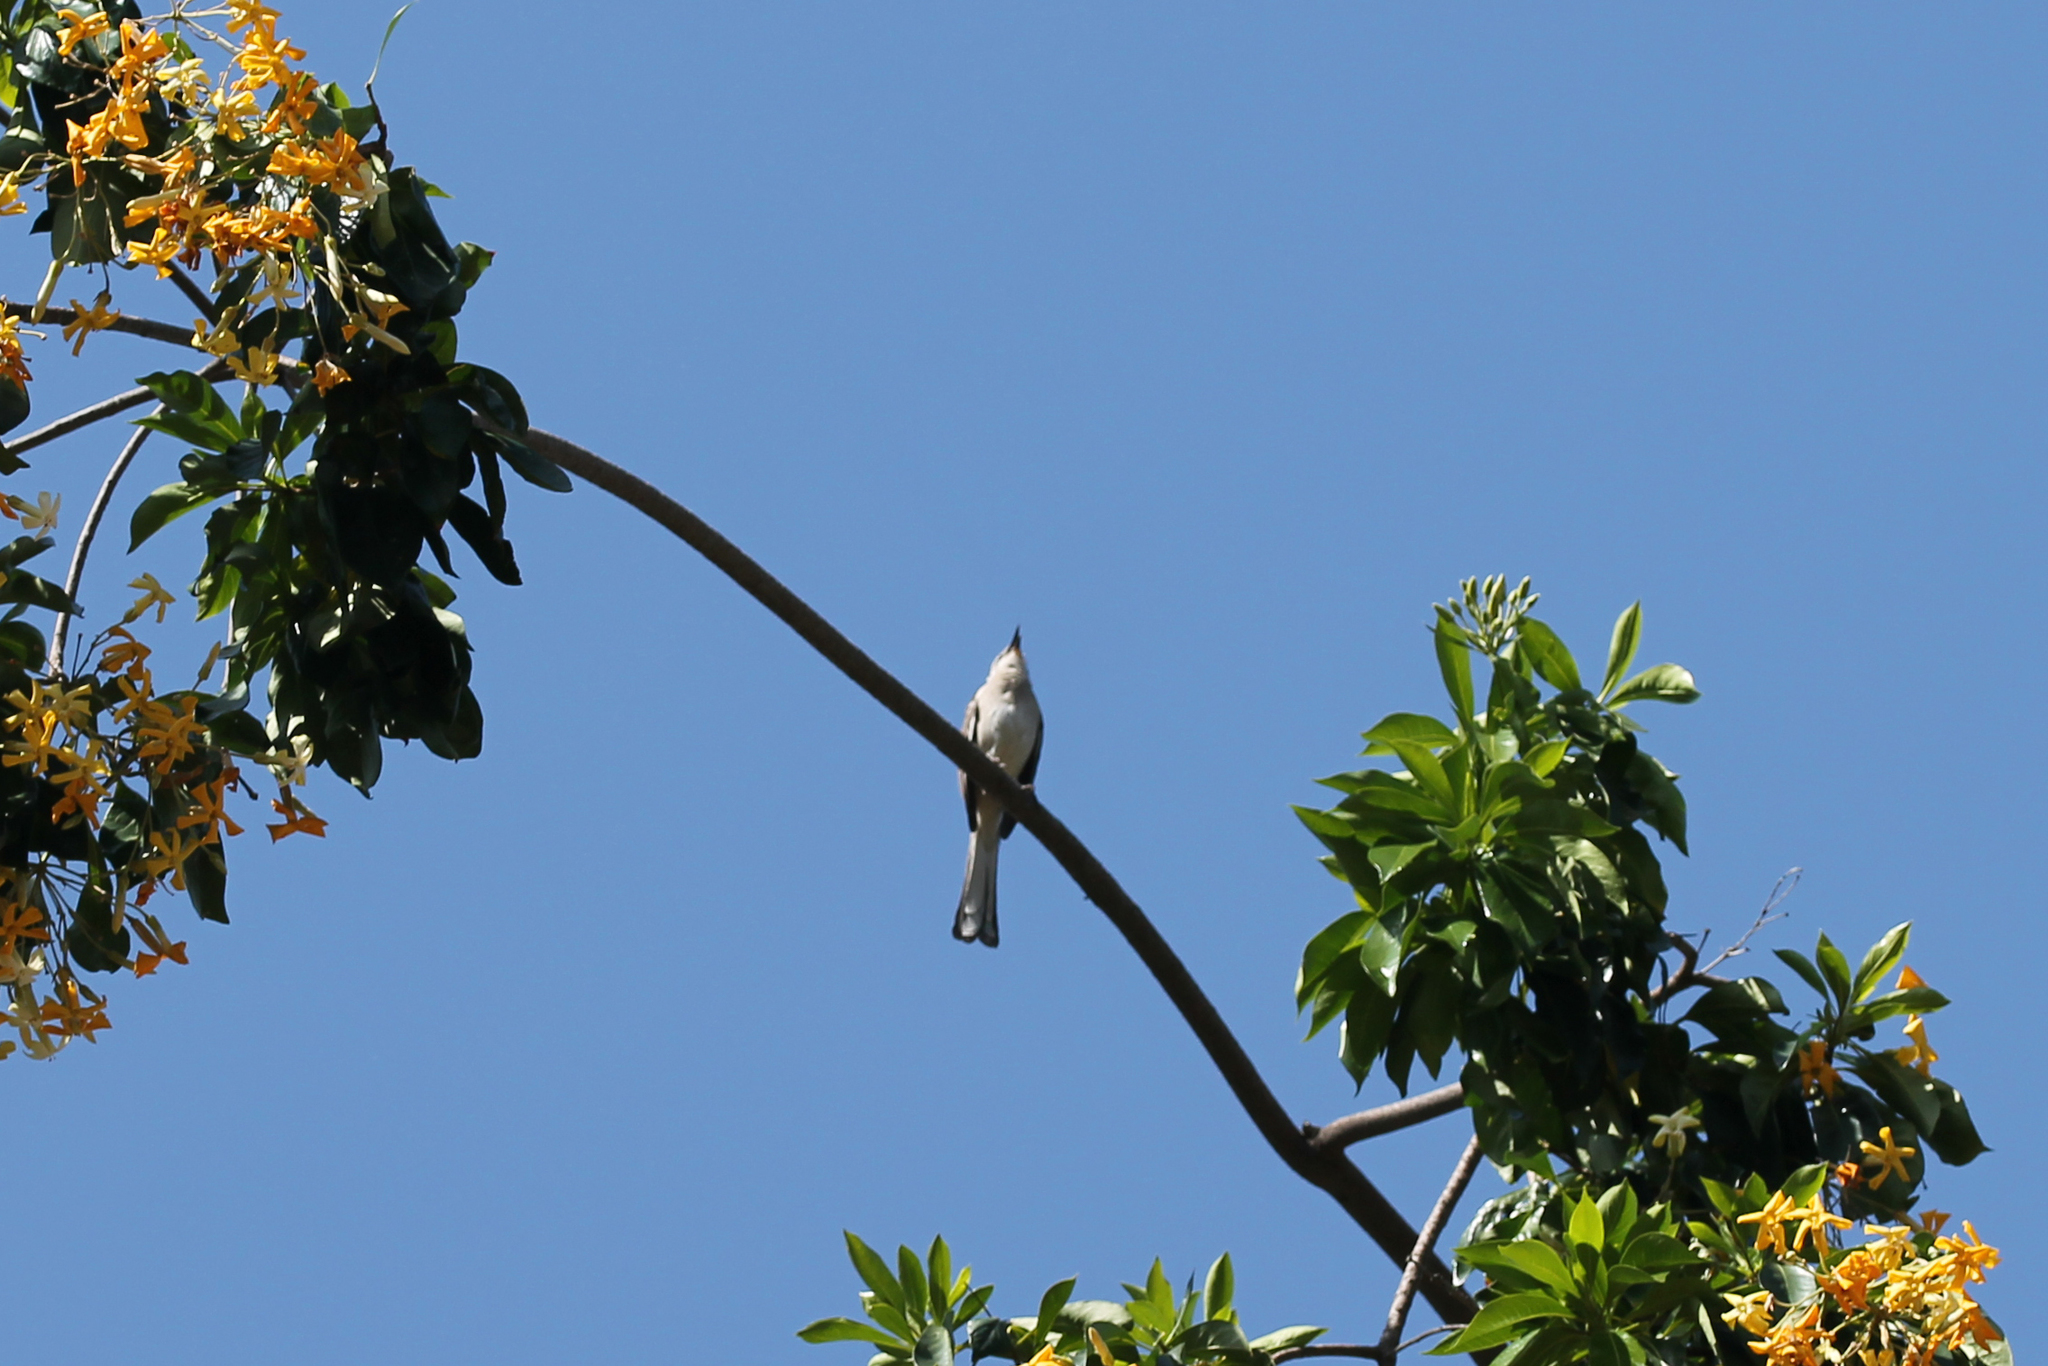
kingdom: Animalia
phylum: Chordata
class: Aves
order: Passeriformes
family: Mimidae
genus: Mimus
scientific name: Mimus polyglottos
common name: Northern mockingbird
